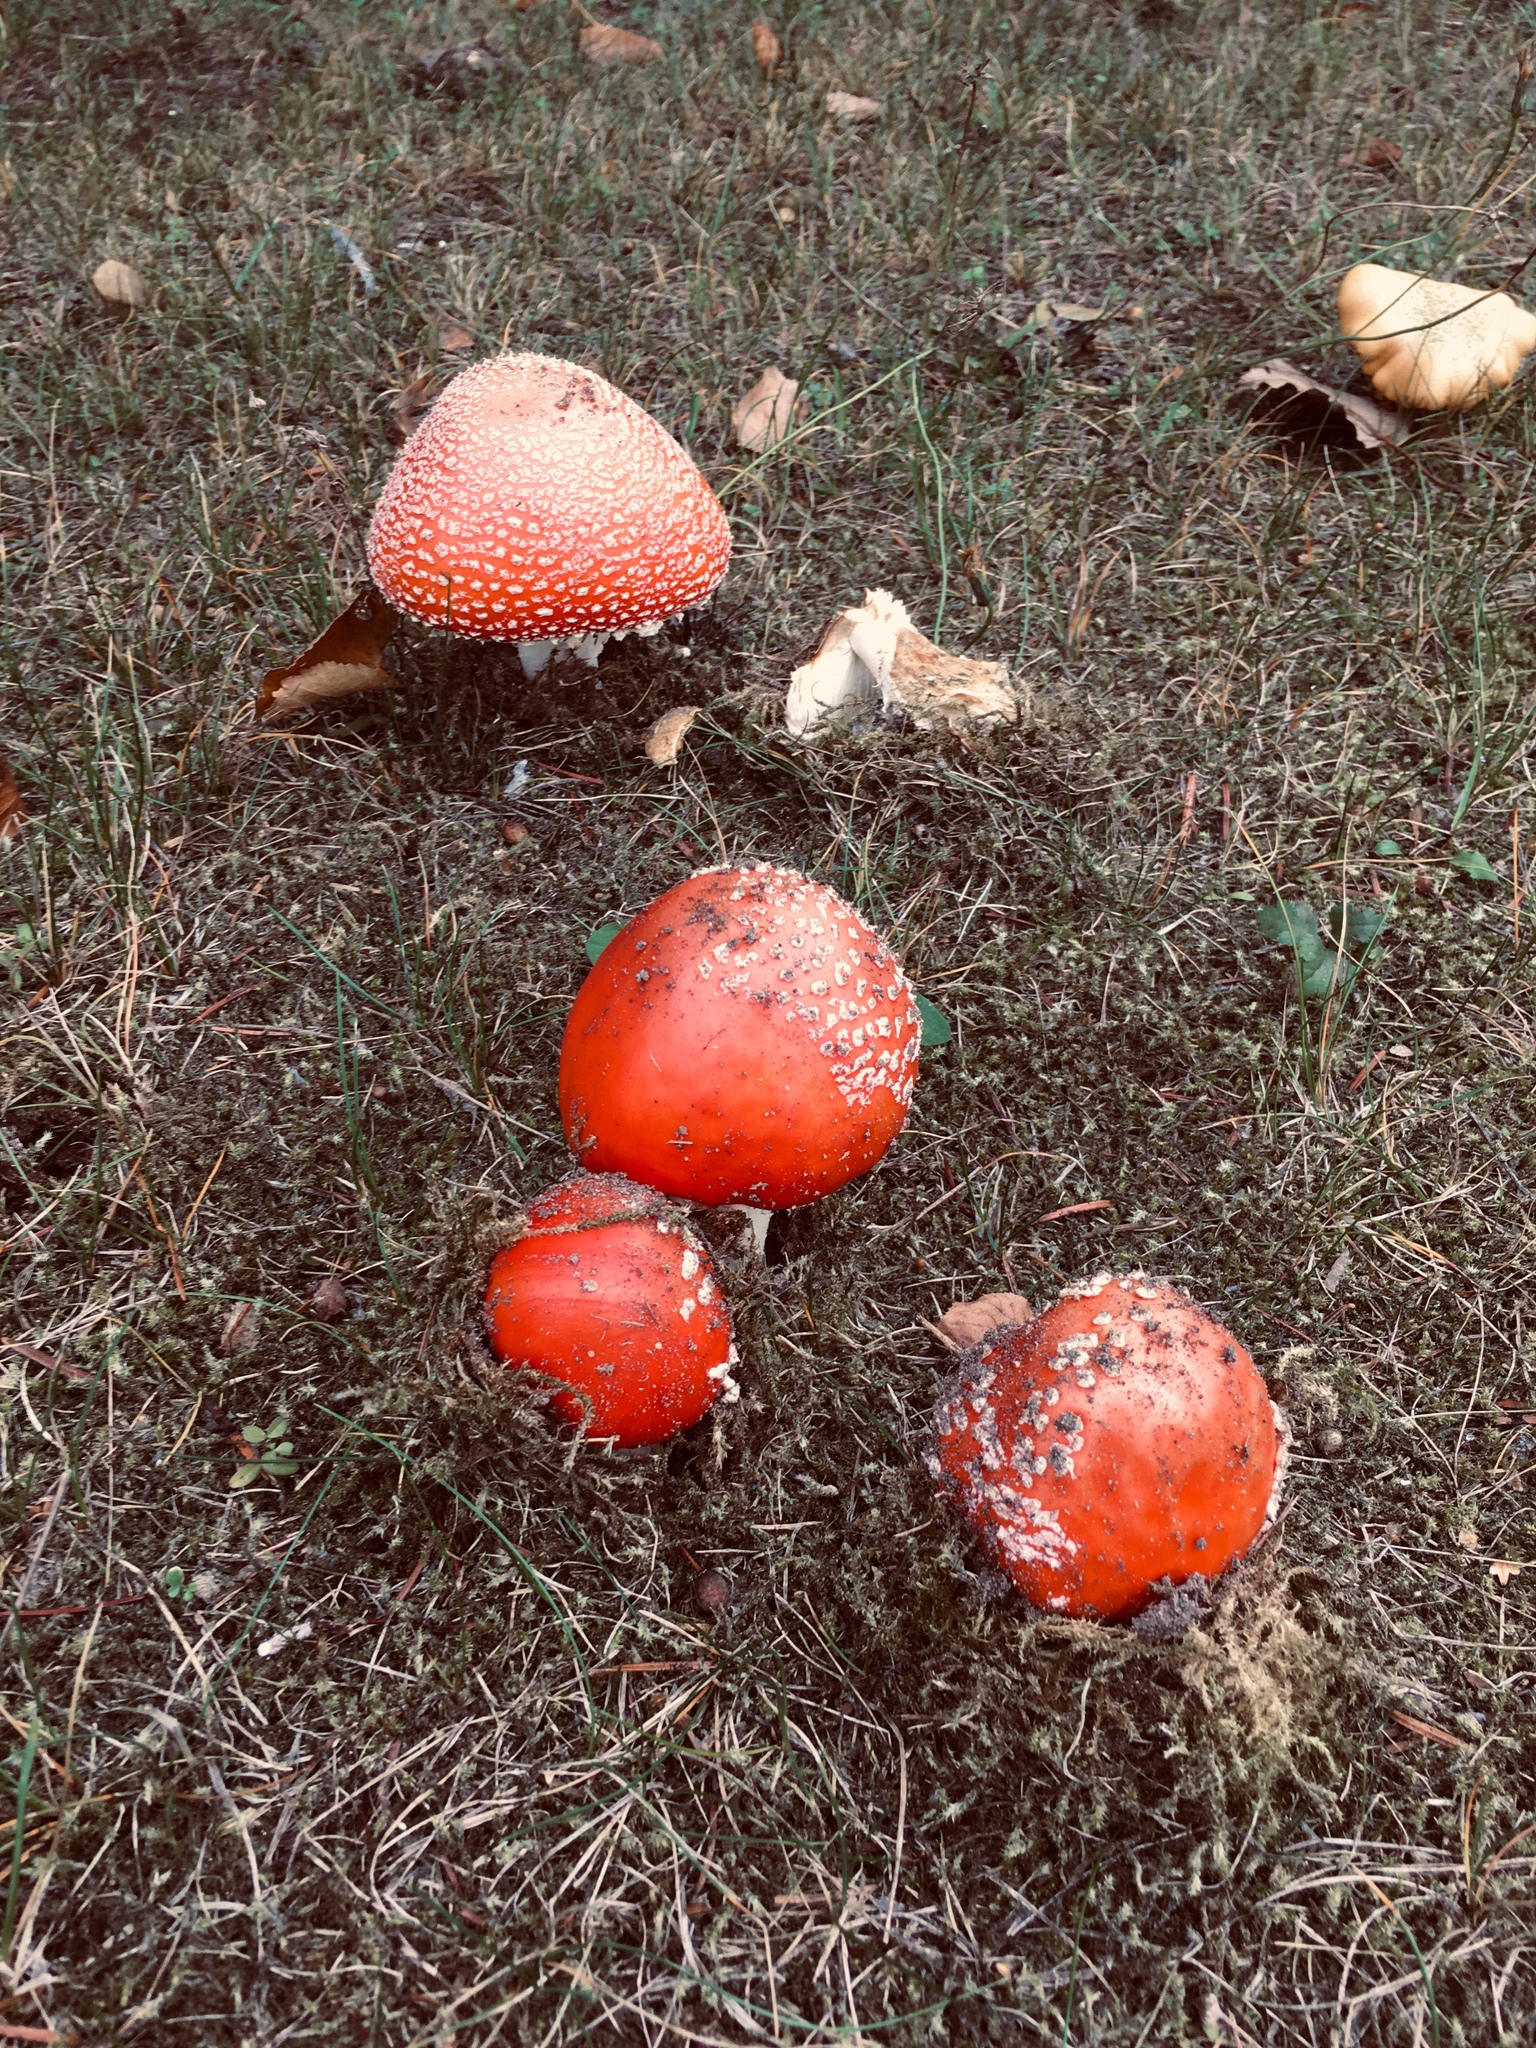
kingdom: Fungi
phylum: Basidiomycota
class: Agaricomycetes
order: Agaricales
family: Amanitaceae
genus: Amanita
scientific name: Amanita muscaria
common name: Fly agaric
